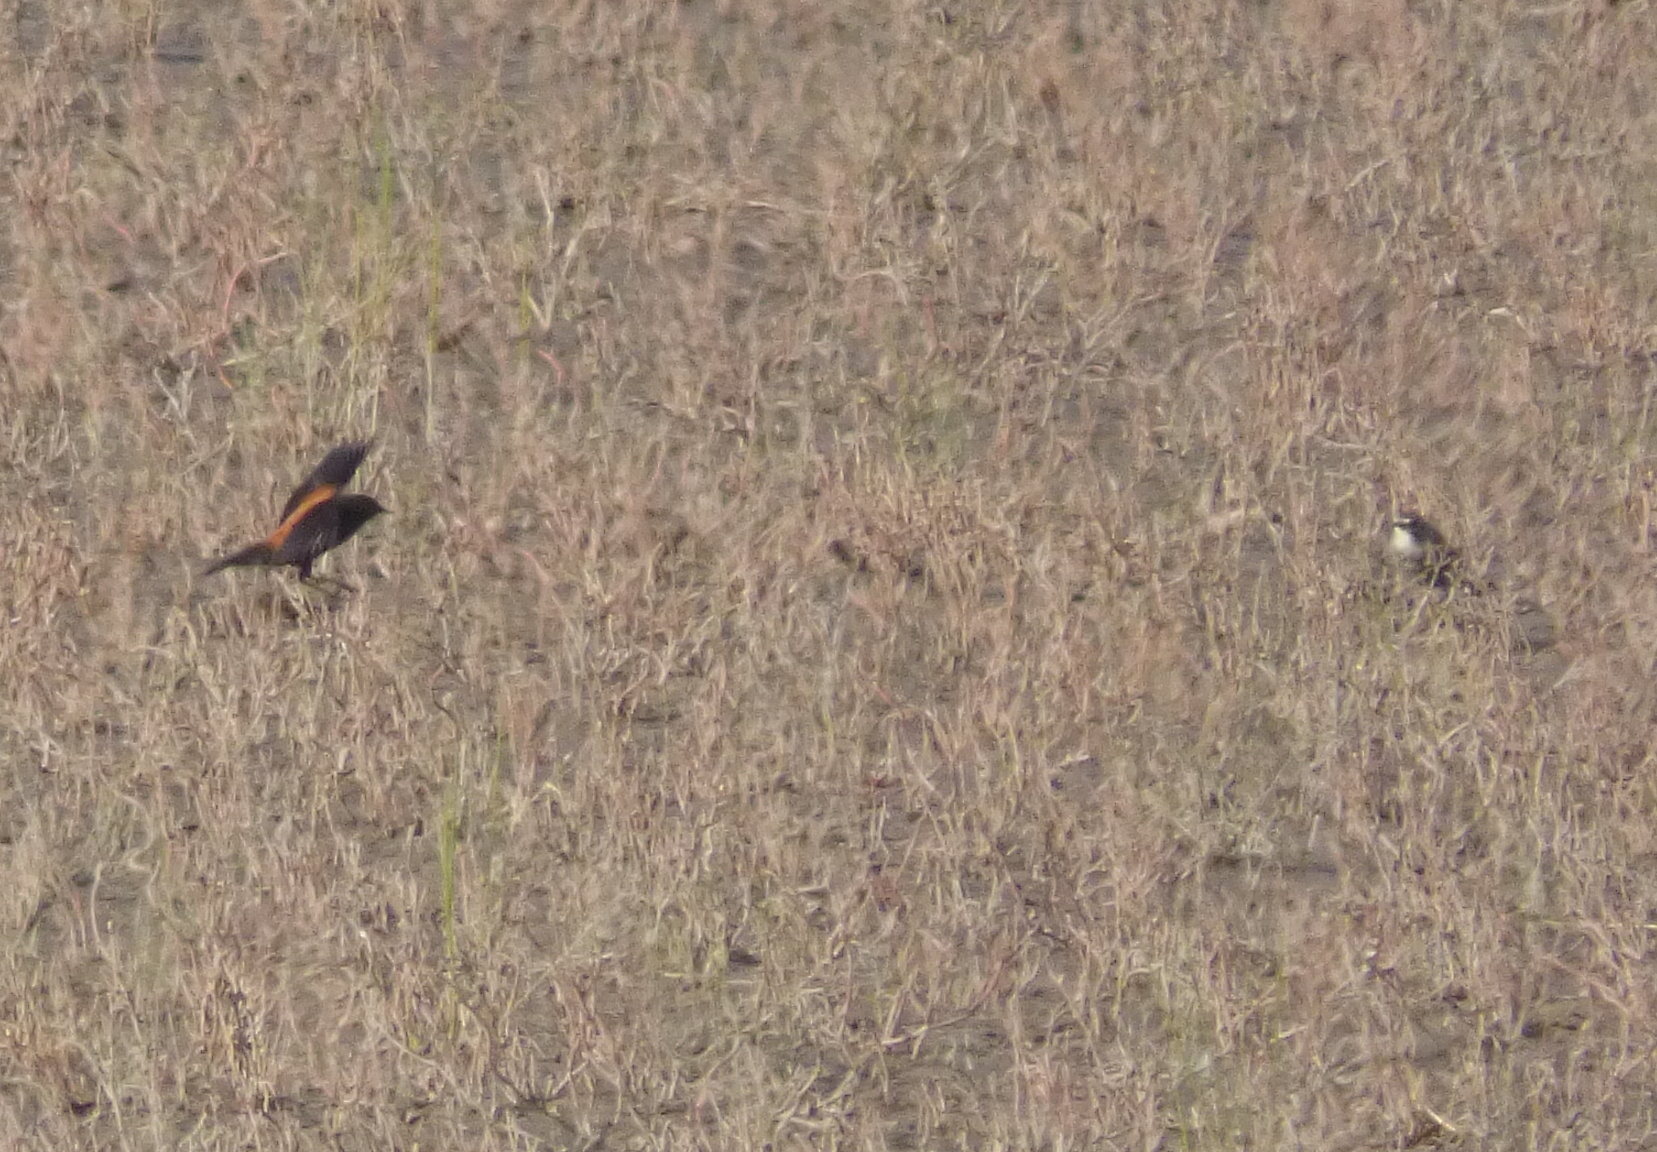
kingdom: Animalia
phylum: Chordata
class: Aves
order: Passeriformes
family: Tyrannidae
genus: Lessonia
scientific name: Lessonia rufa
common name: Austral negrito
